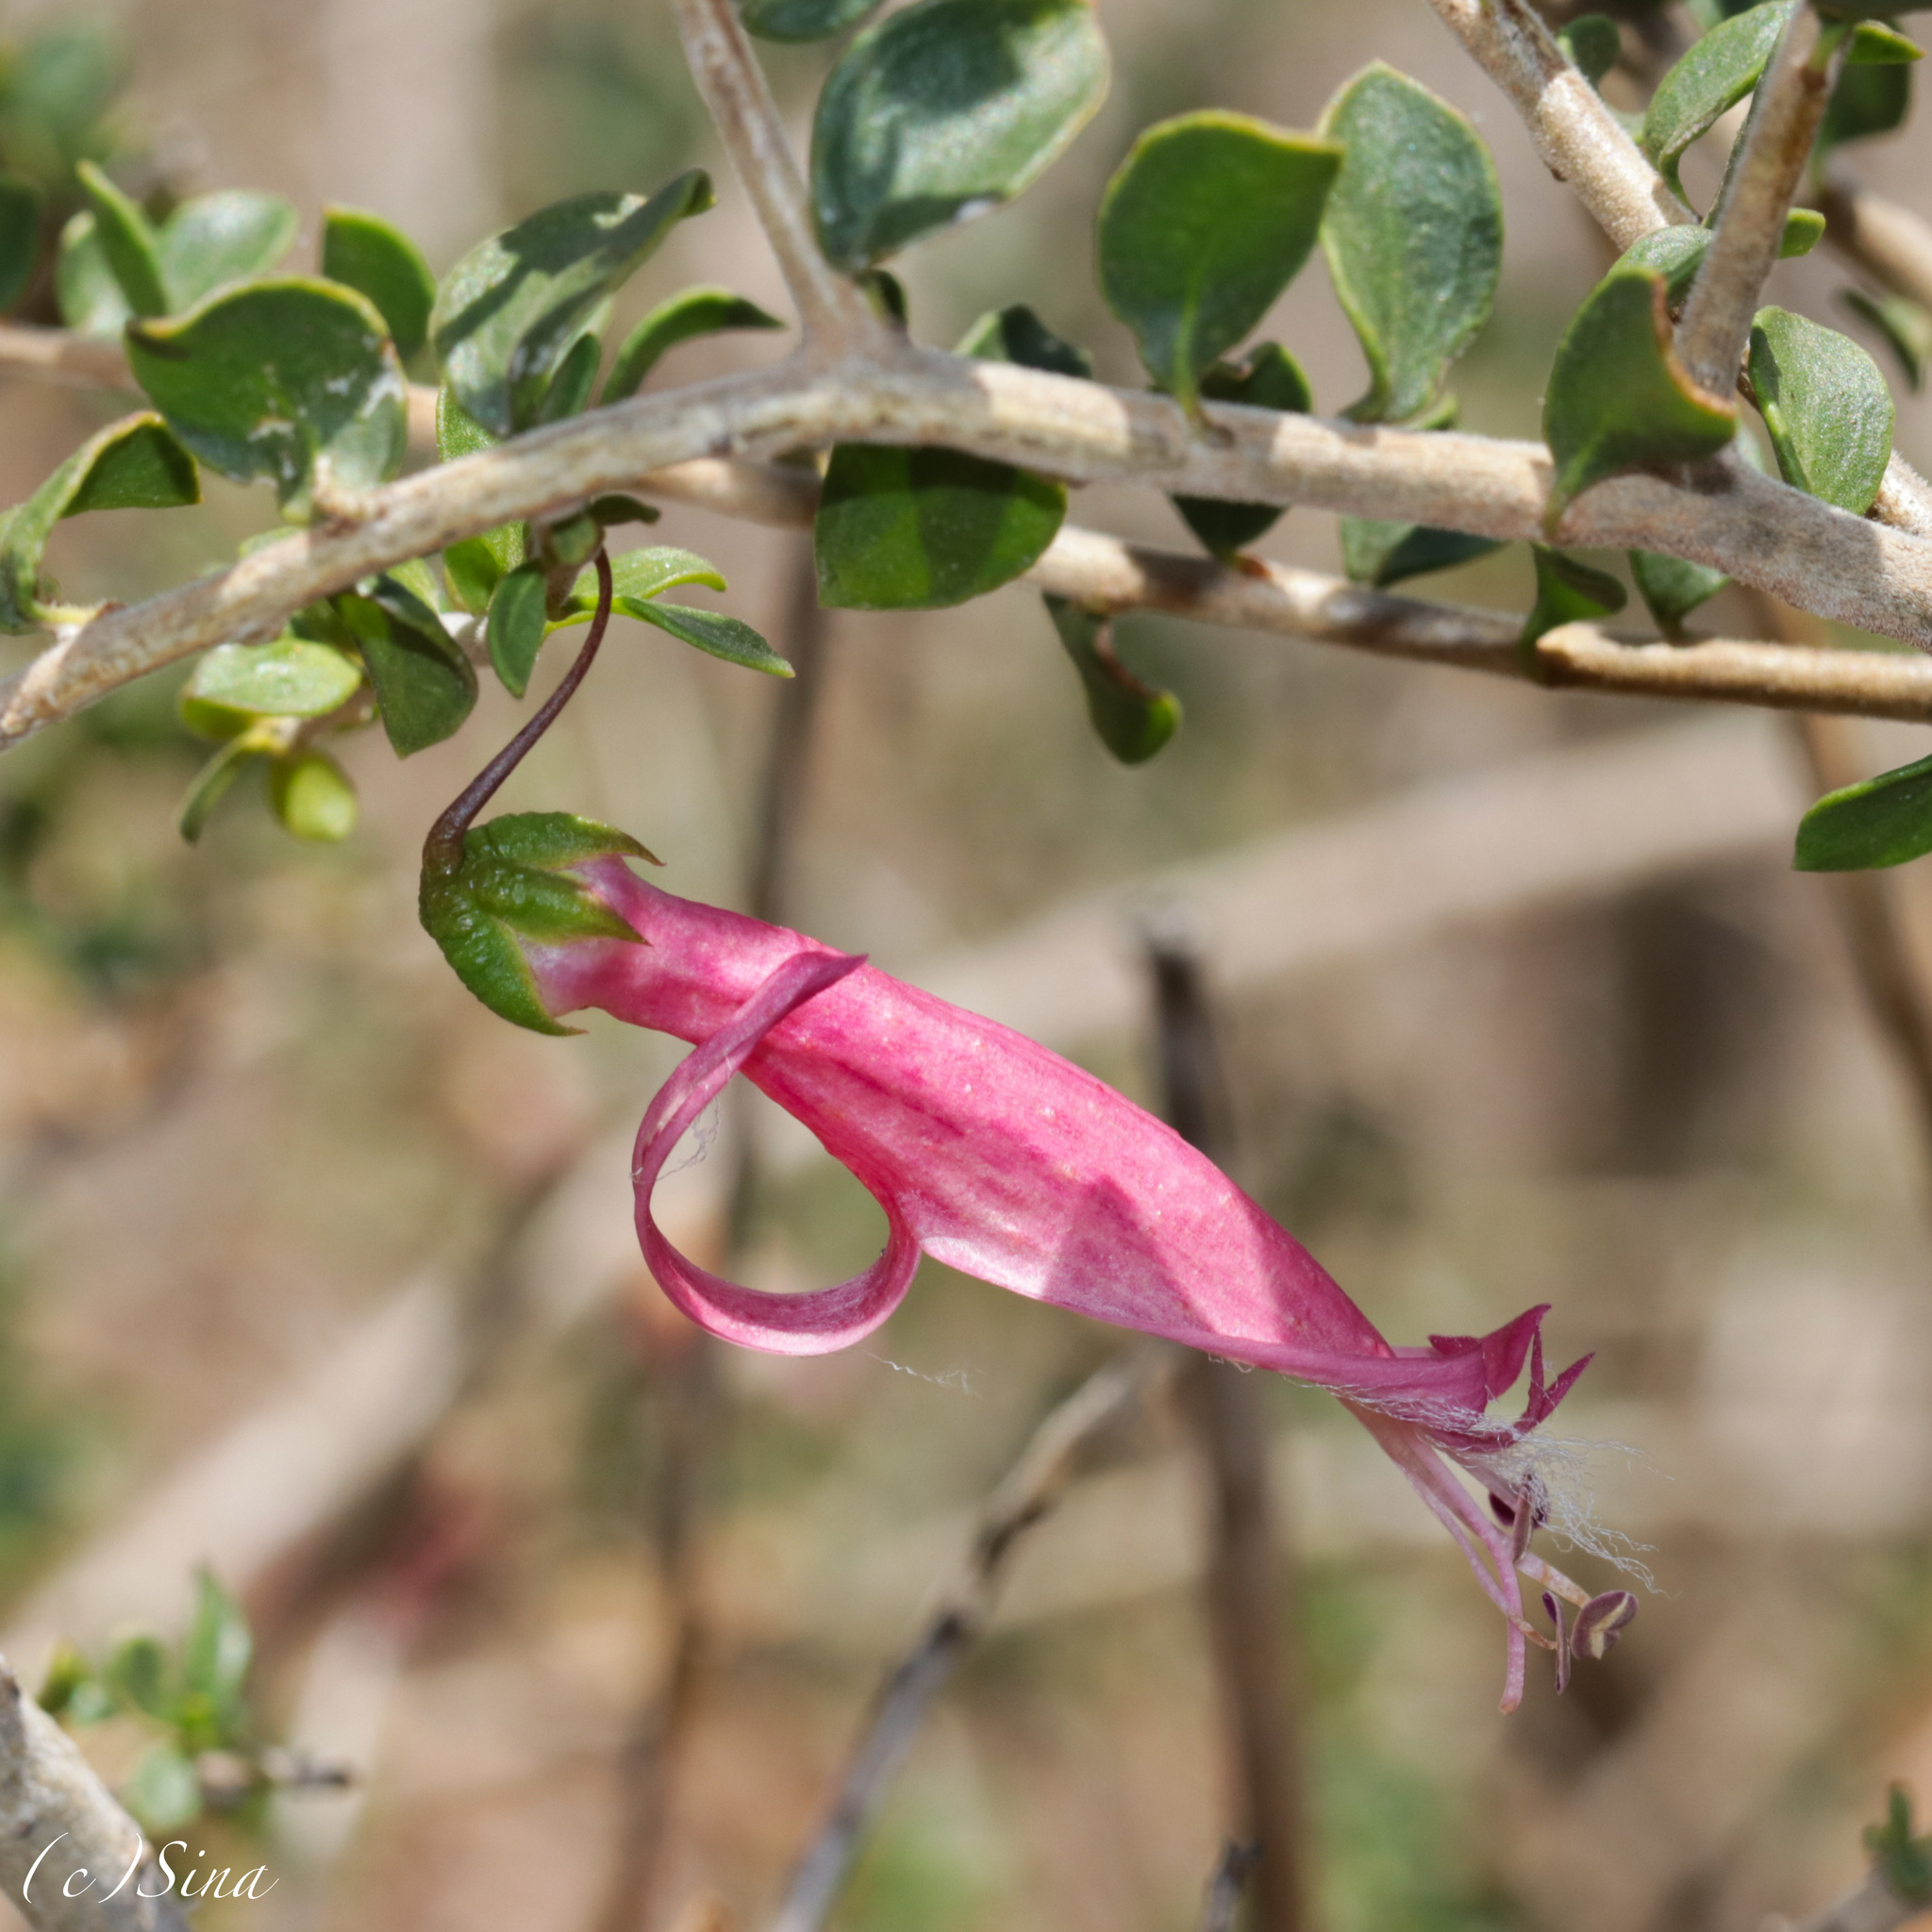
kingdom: Plantae
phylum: Tracheophyta
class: Magnoliopsida
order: Lamiales
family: Scrophulariaceae
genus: Eremophila
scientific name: Eremophila maculata
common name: Fuchsiabush
